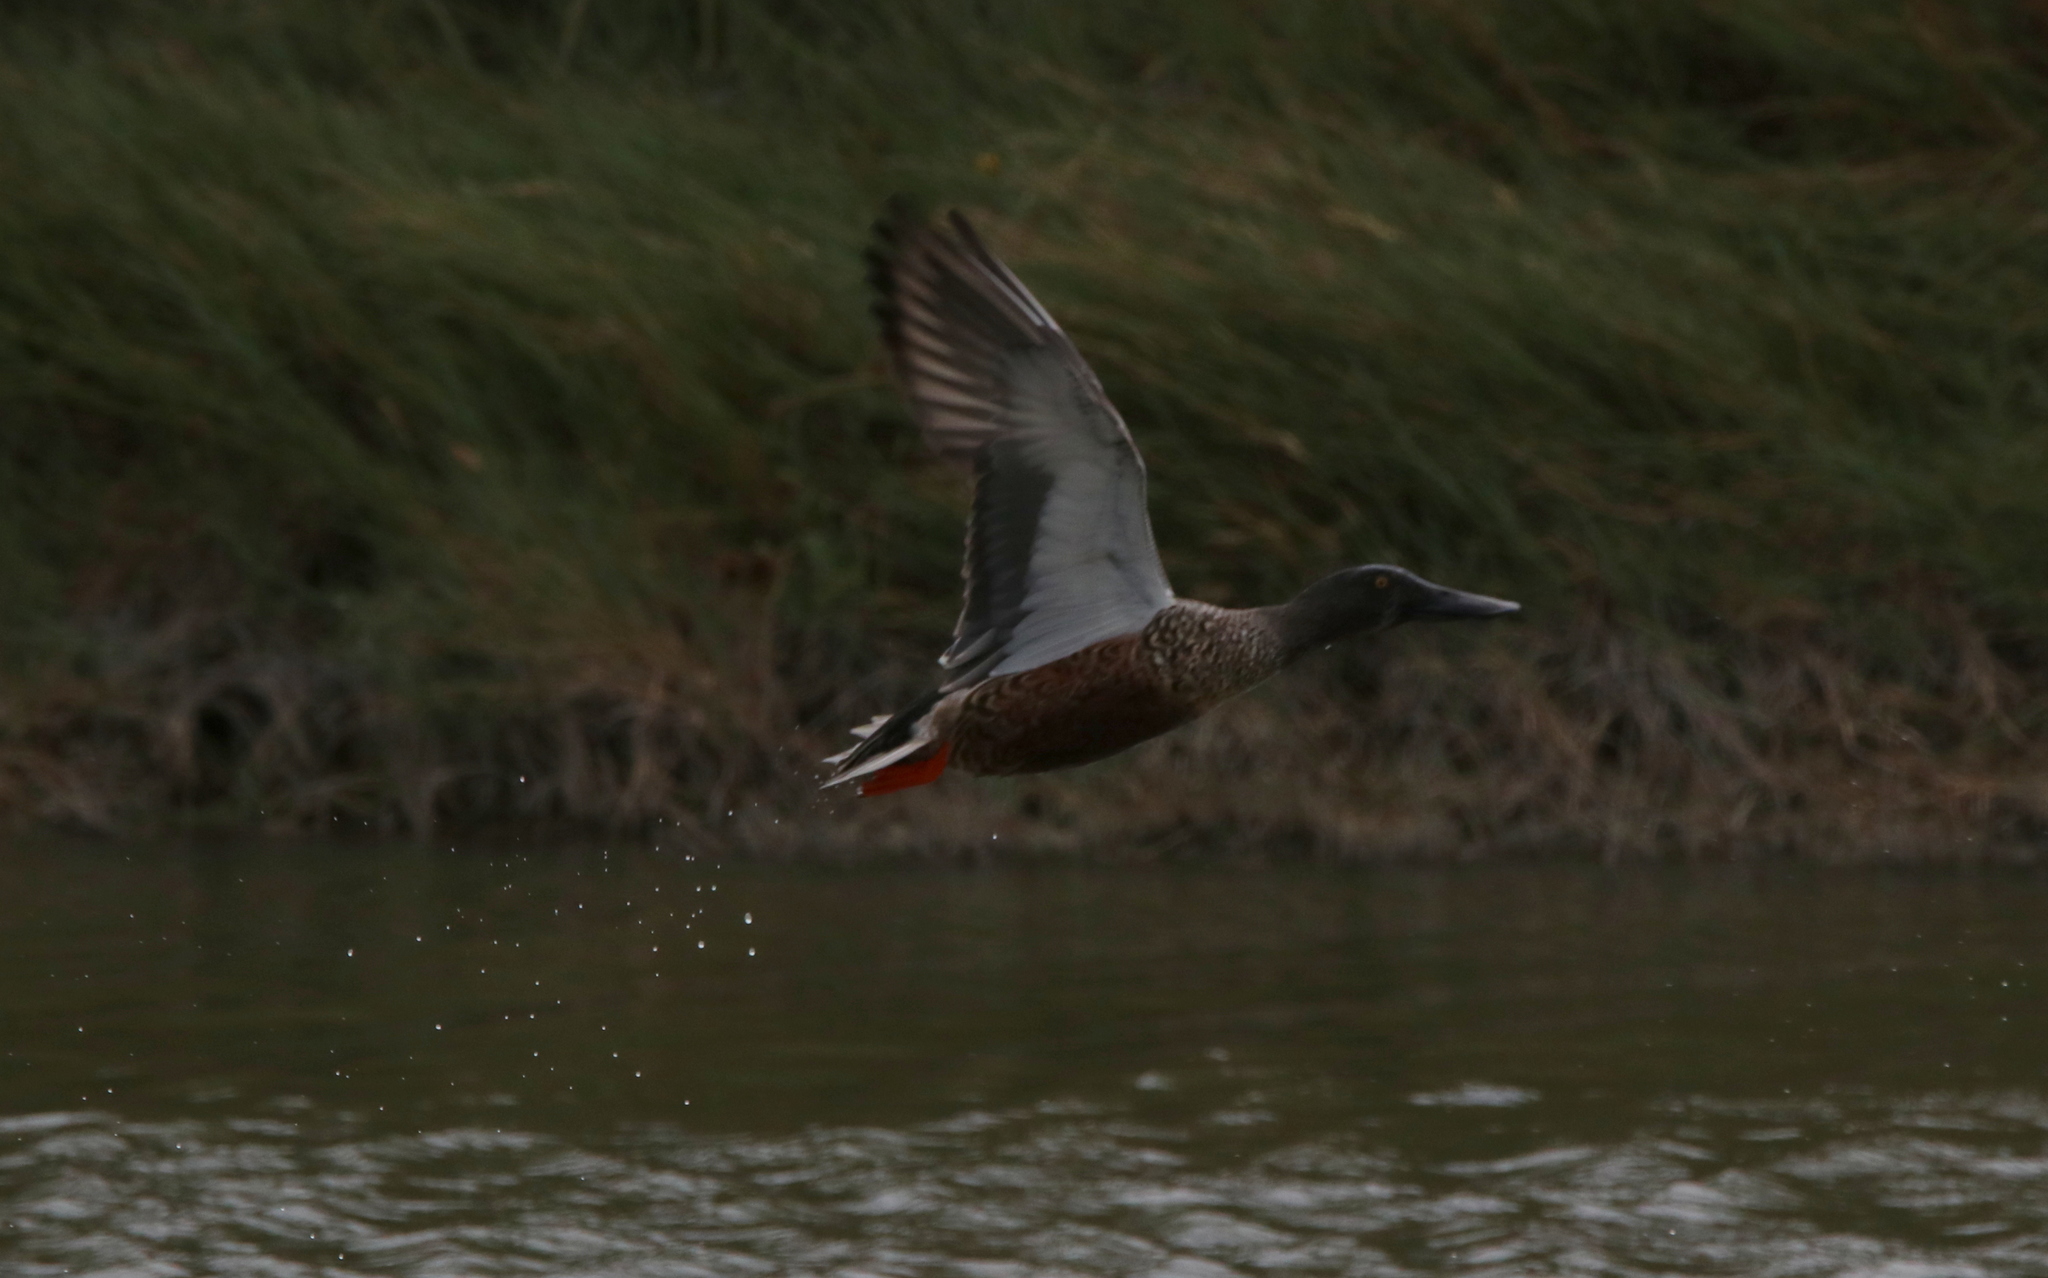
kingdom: Animalia
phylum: Chordata
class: Aves
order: Anseriformes
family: Anatidae
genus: Spatula
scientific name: Spatula clypeata
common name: Northern shoveler
